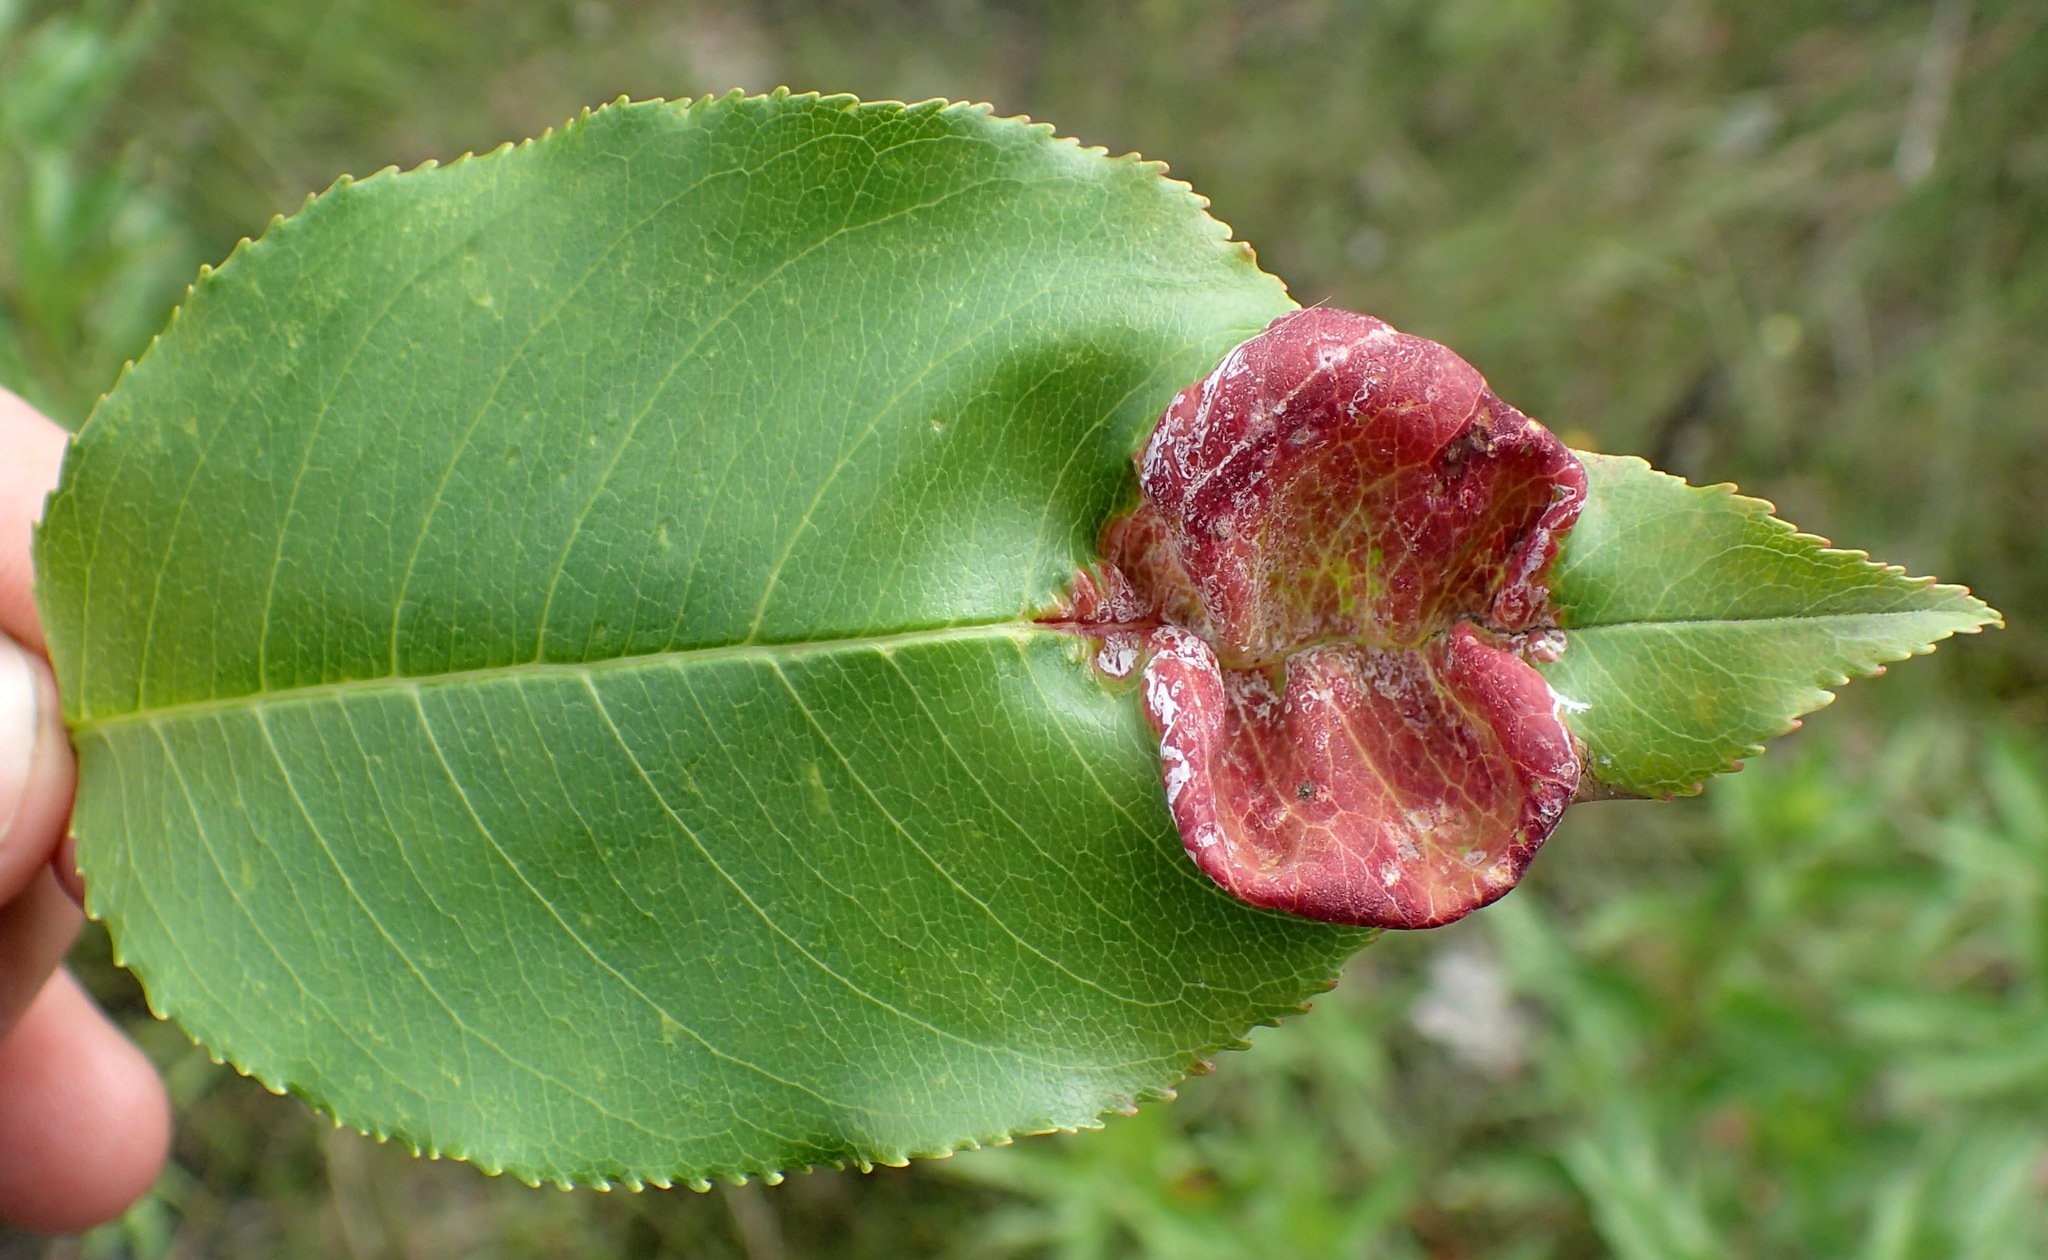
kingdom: Fungi
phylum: Ascomycota
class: Taphrinomycetes
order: Taphrinales
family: Taphrinaceae
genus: Taphrina
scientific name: Taphrina farlowii
